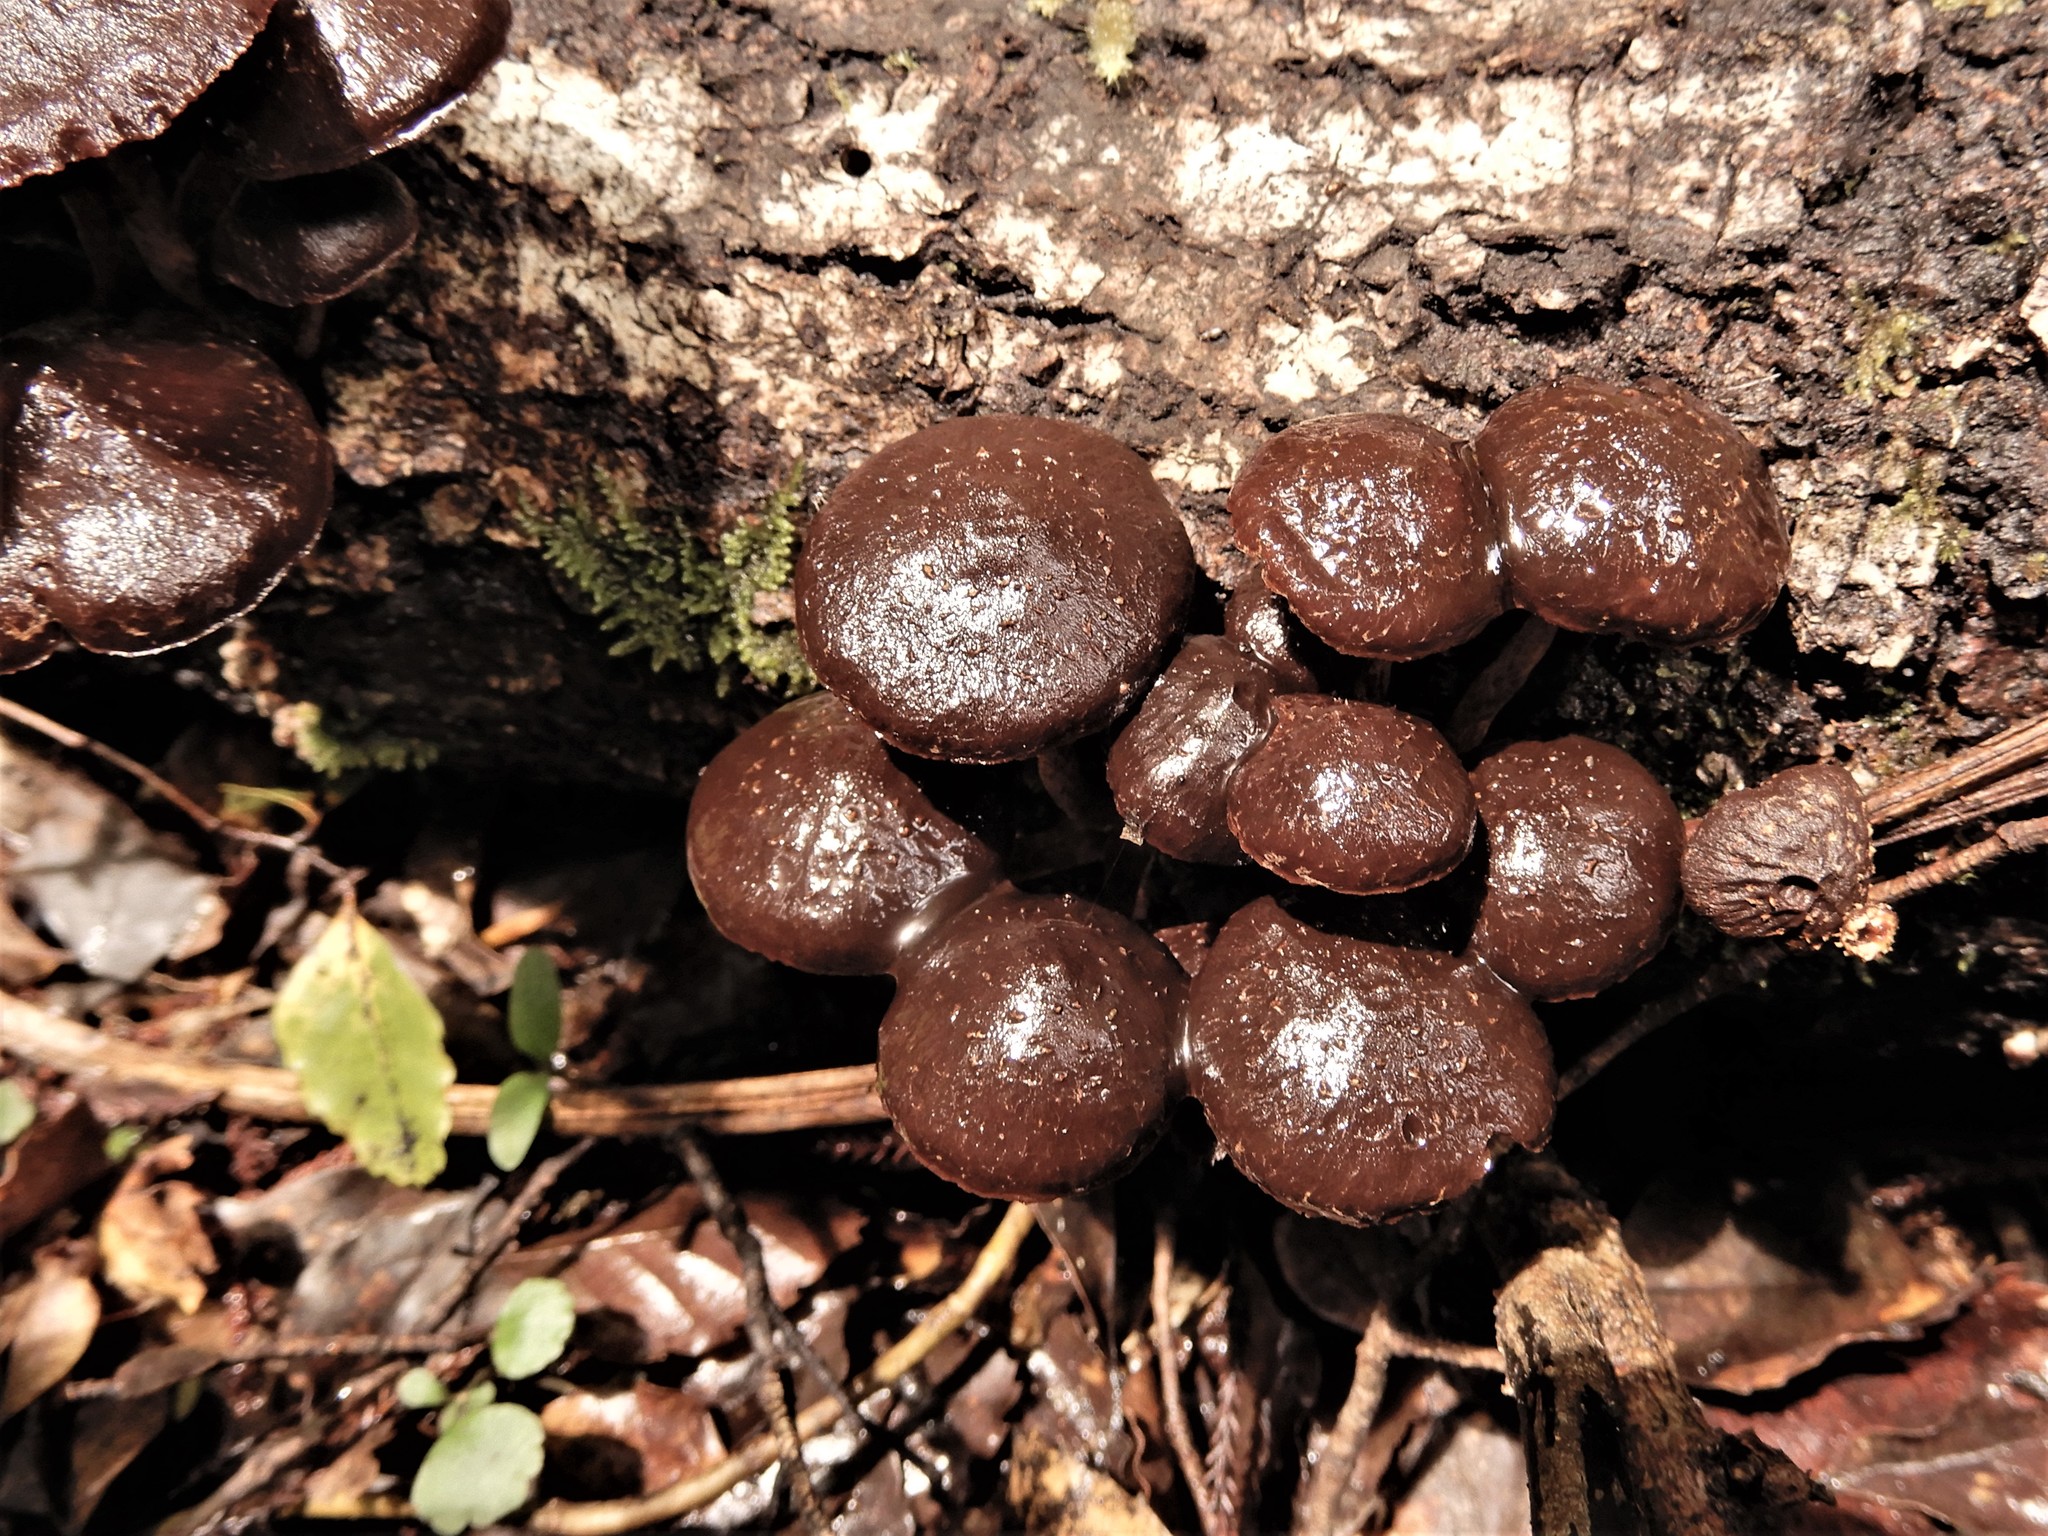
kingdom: Fungi
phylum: Basidiomycota
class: Agaricomycetes
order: Agaricales
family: Strophariaceae
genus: Hypholoma
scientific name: Hypholoma brunneum
